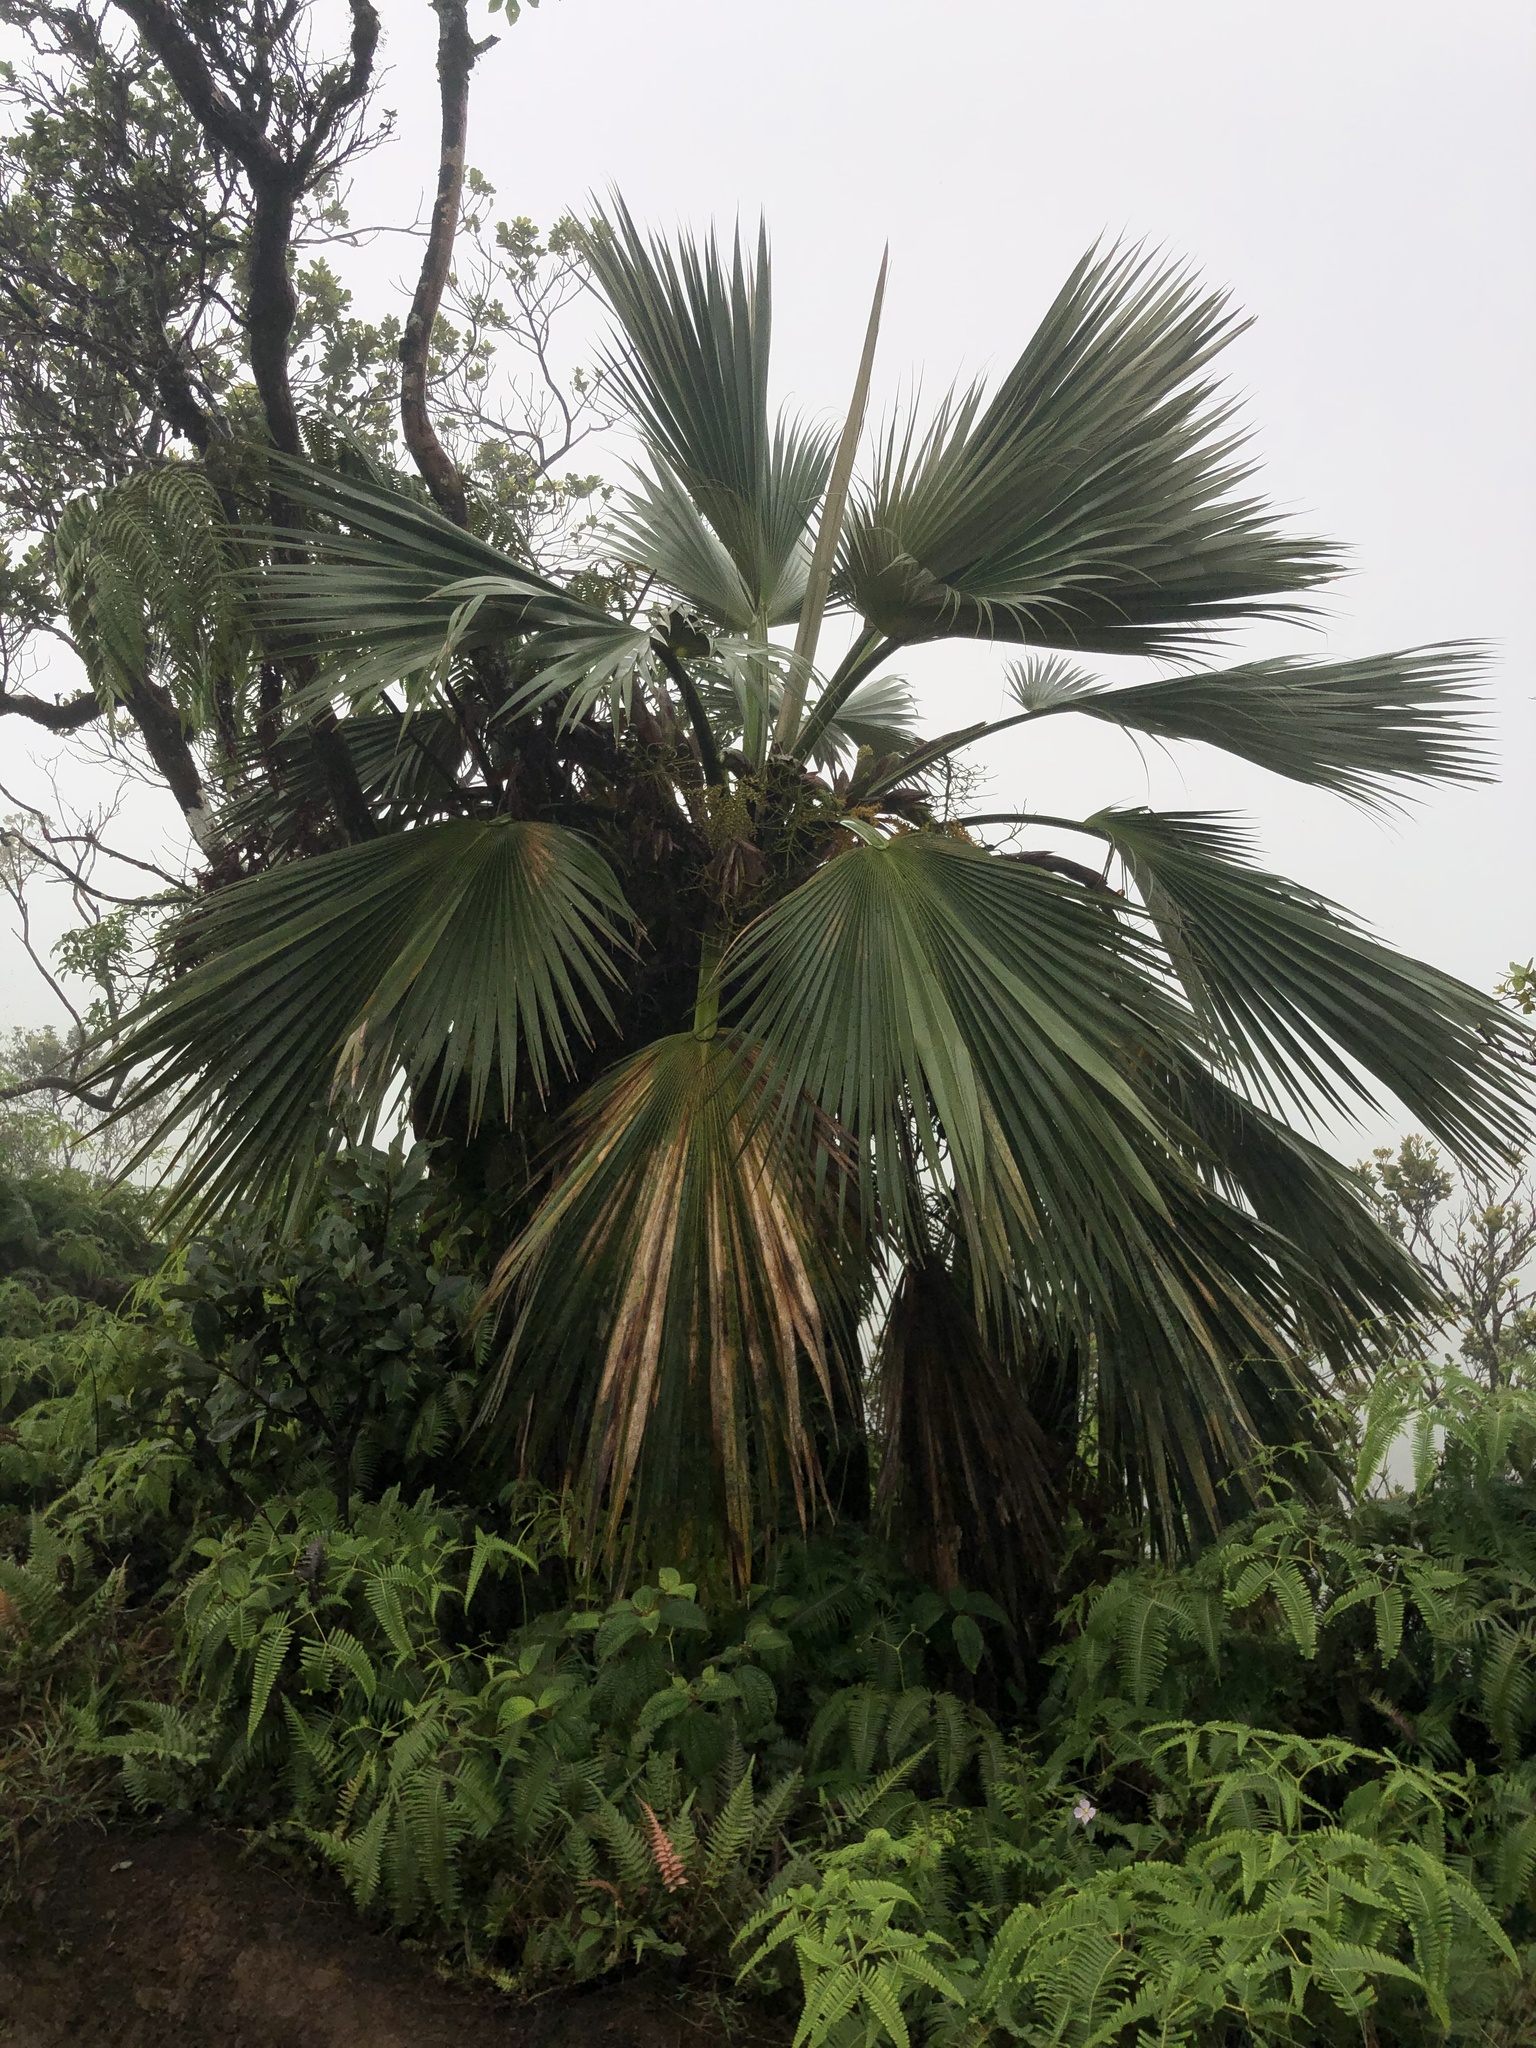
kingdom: Plantae
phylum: Tracheophyta
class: Liliopsida
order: Arecales
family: Arecaceae
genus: Pritchardia
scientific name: Pritchardia martii
